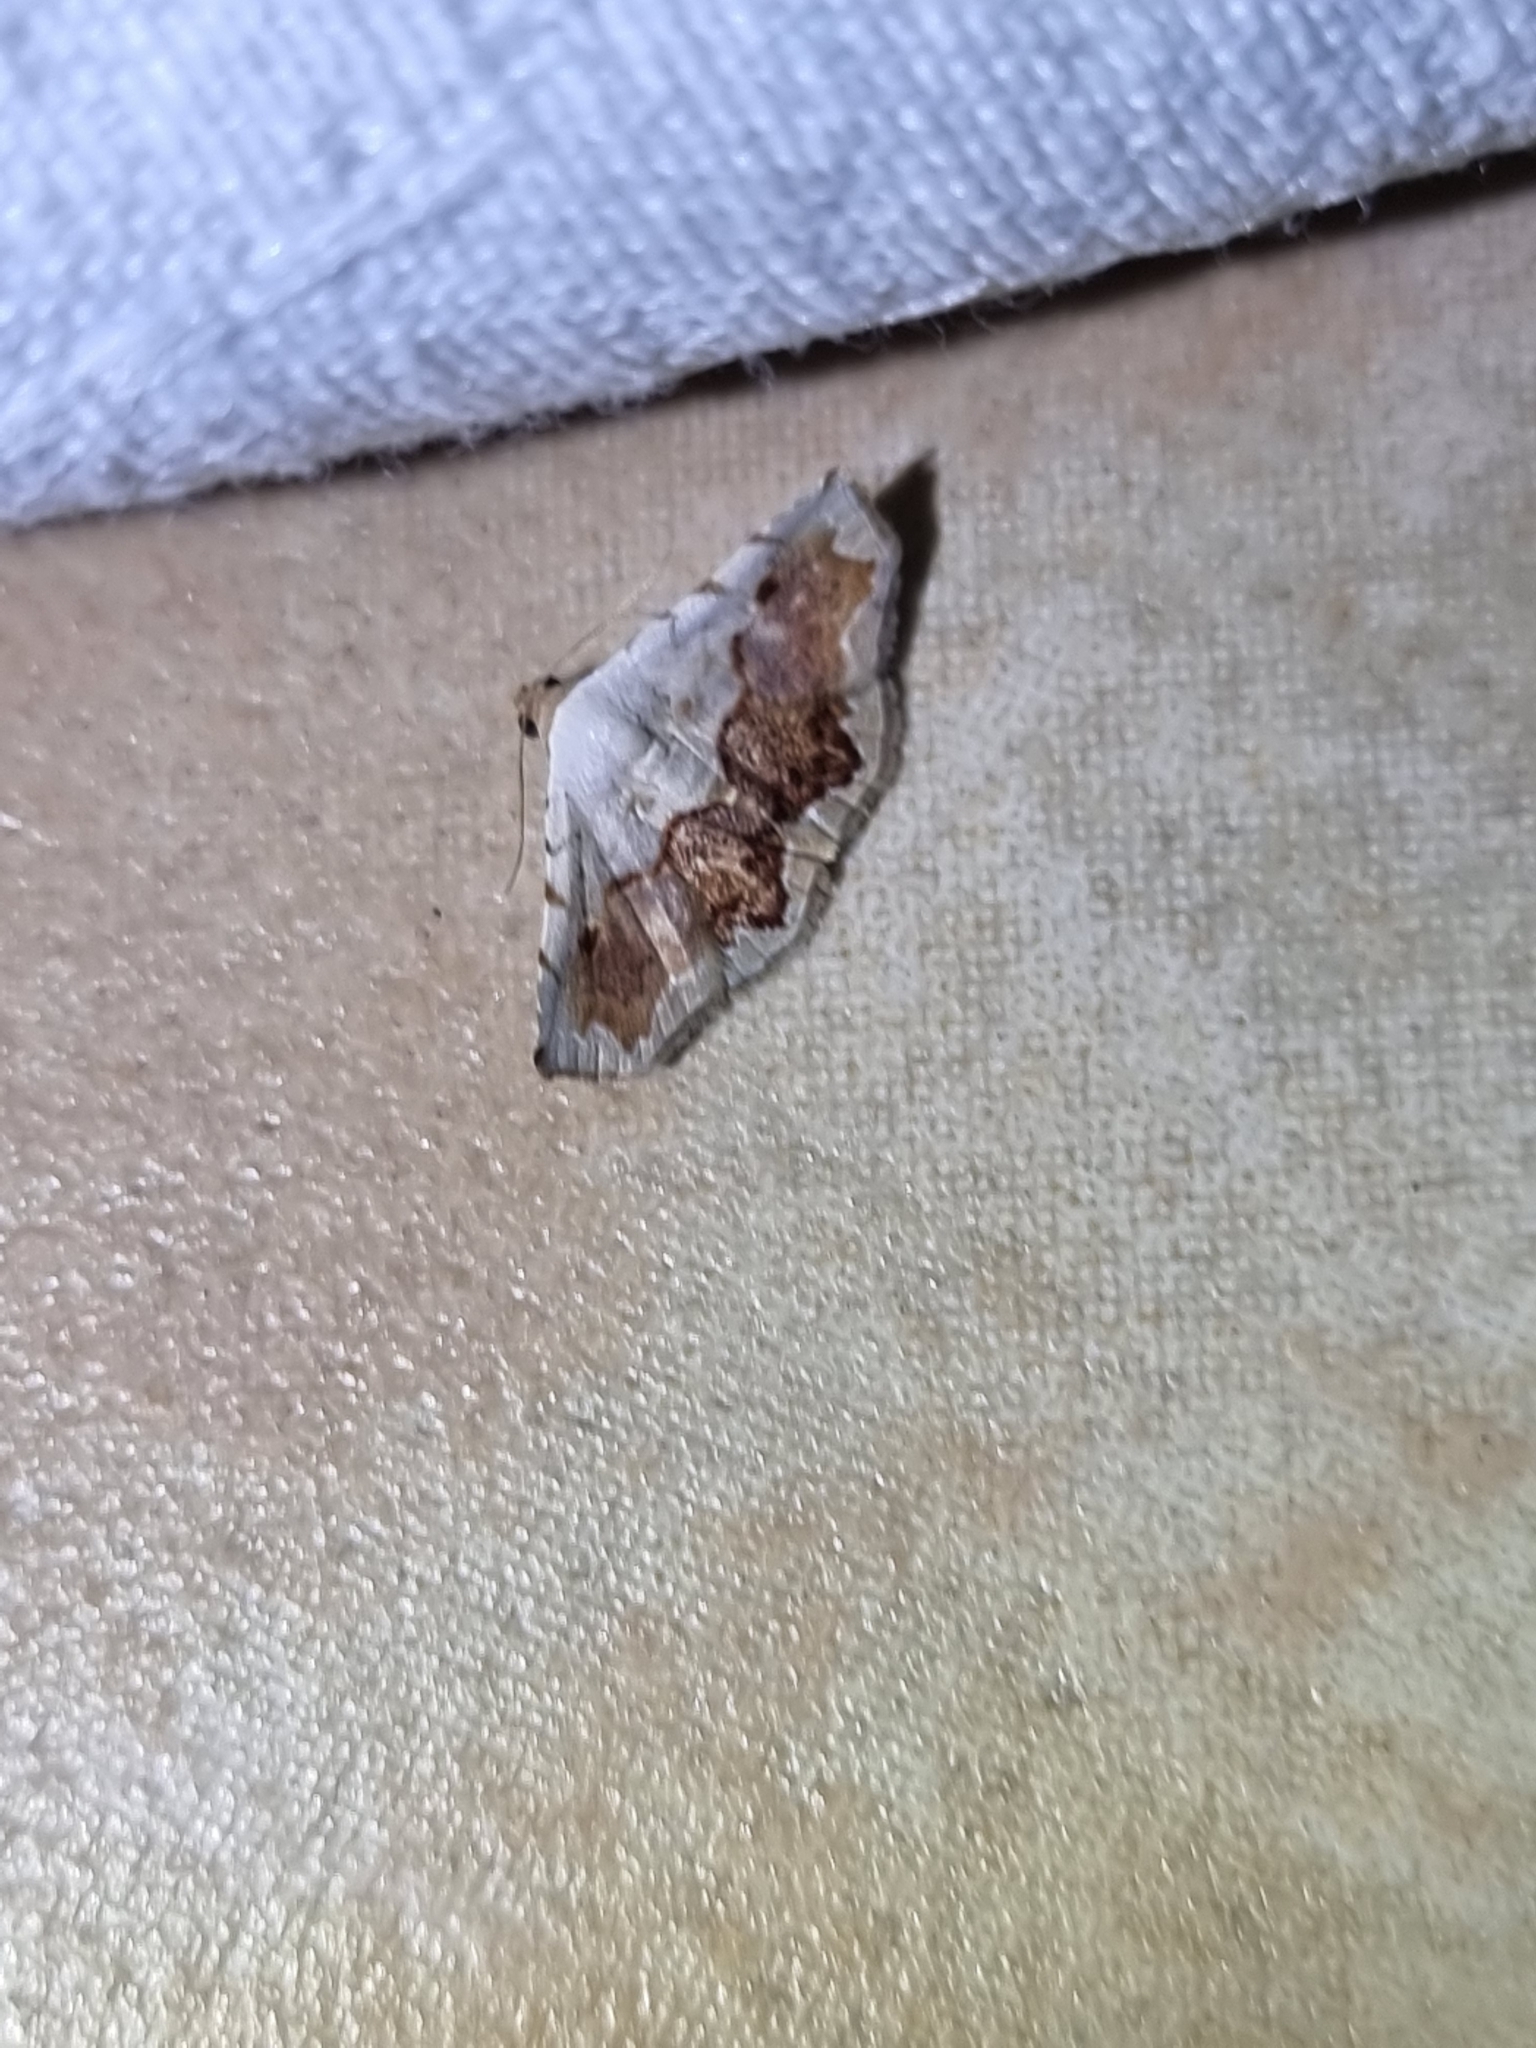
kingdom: Animalia
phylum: Arthropoda
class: Insecta
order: Lepidoptera
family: Noctuidae
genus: Eublemma
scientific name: Eublemma
